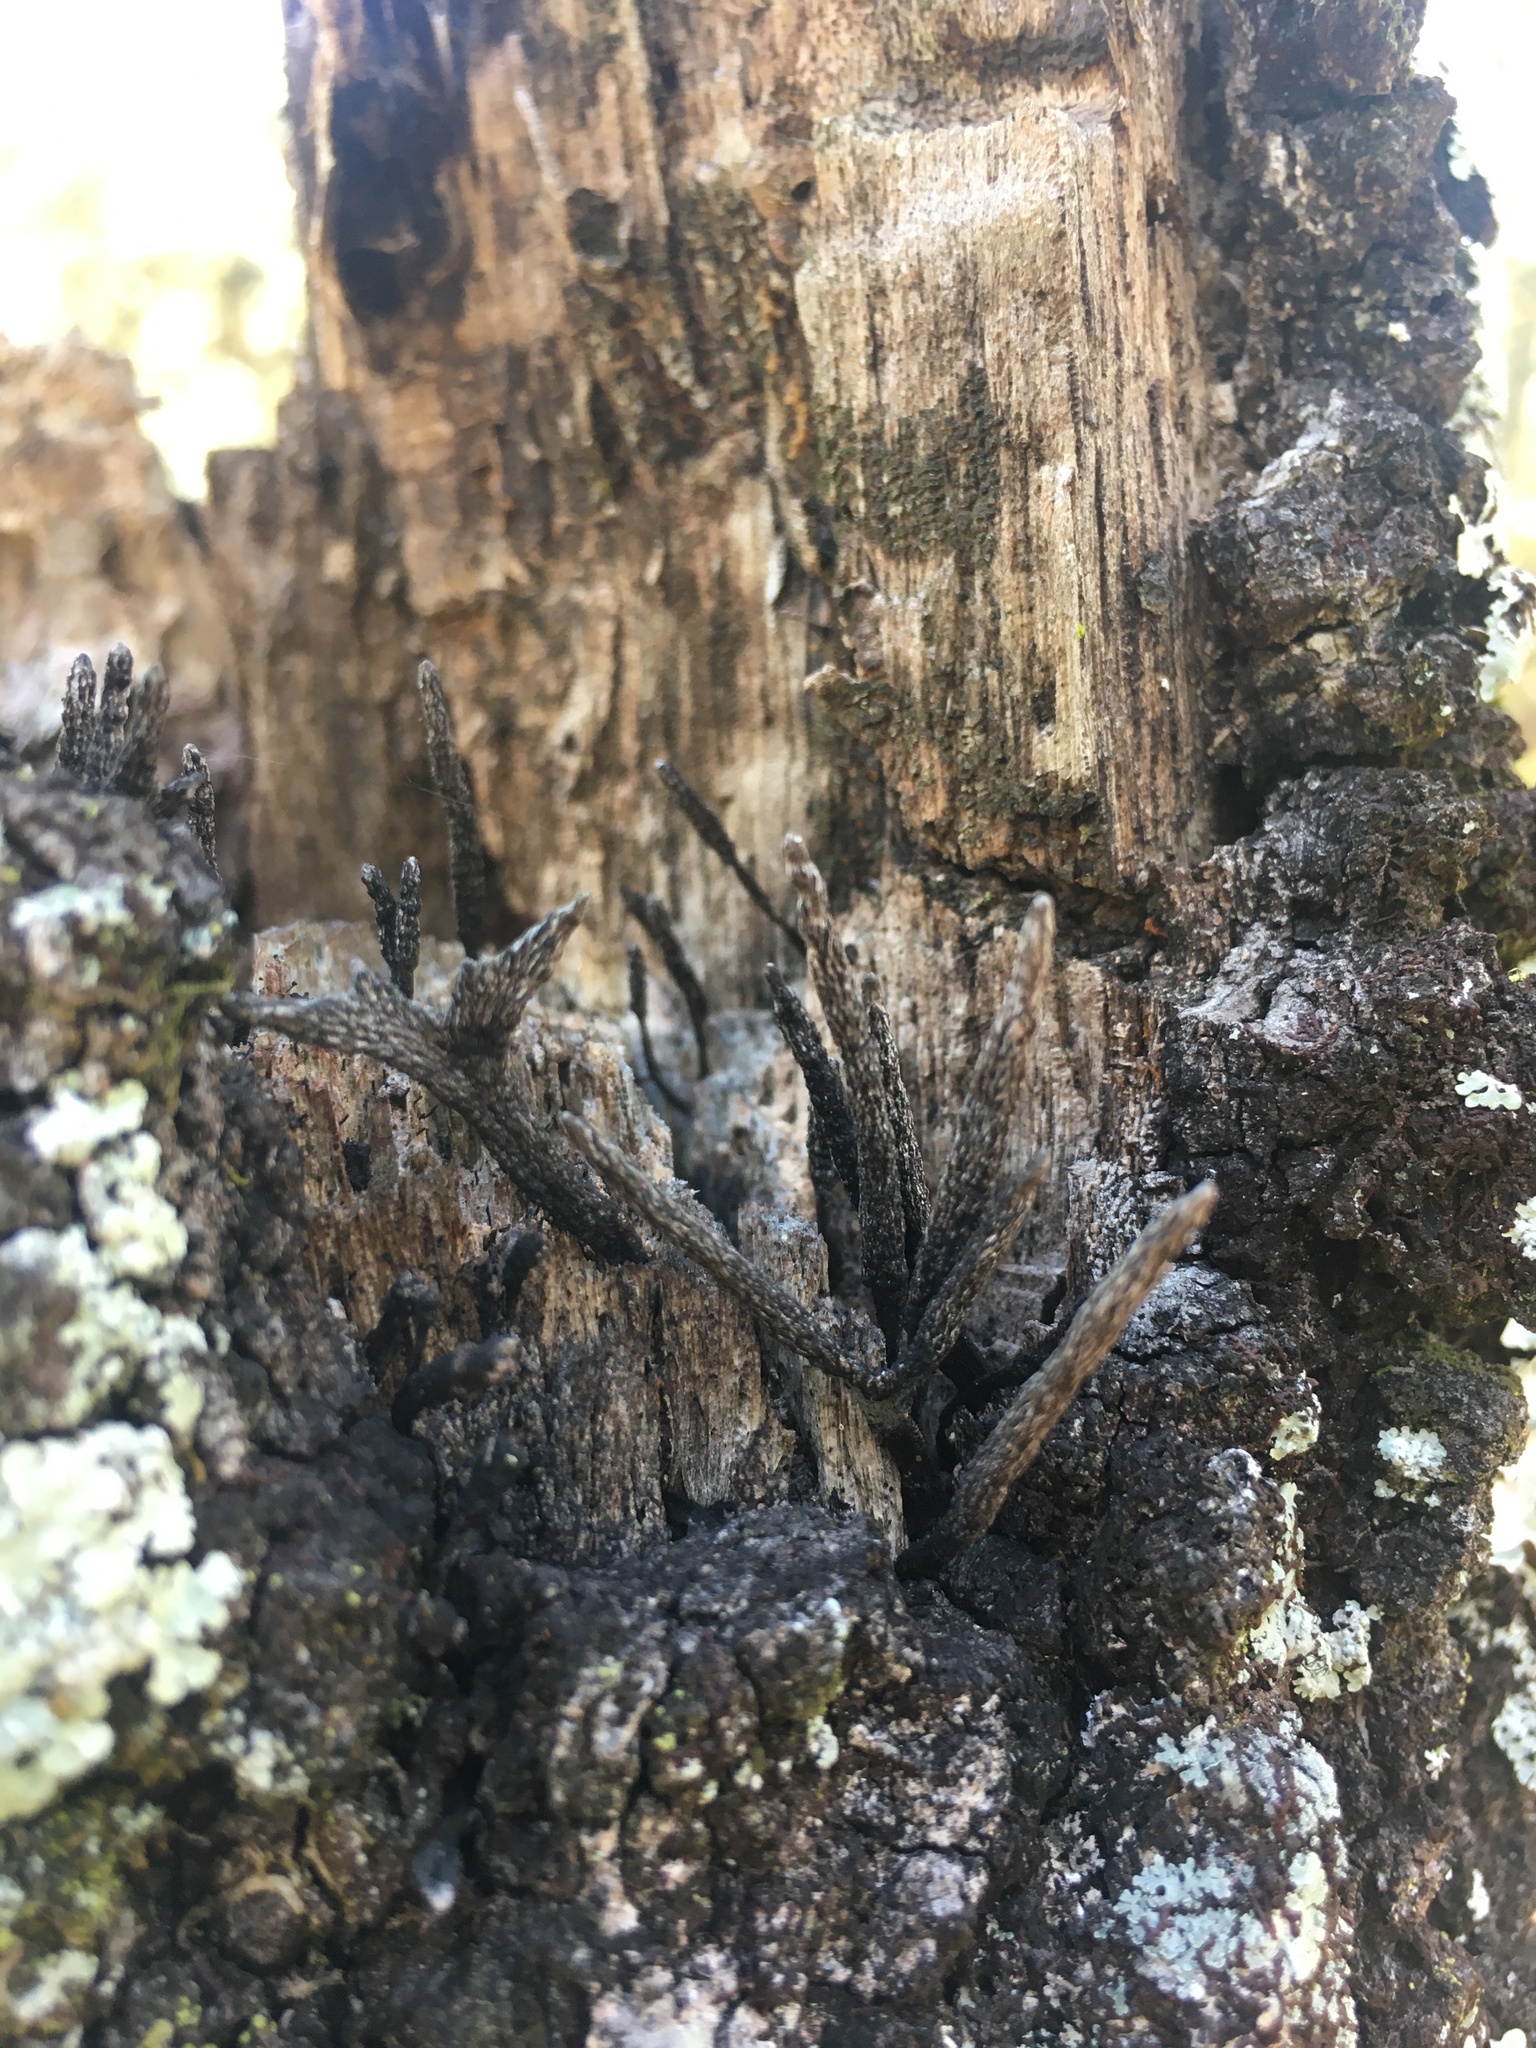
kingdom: Fungi
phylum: Ascomycota
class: Sordariomycetes
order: Xylariales
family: Xylariaceae
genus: Xylaria
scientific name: Xylaria hypoxylon
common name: Candle-snuff fungus
